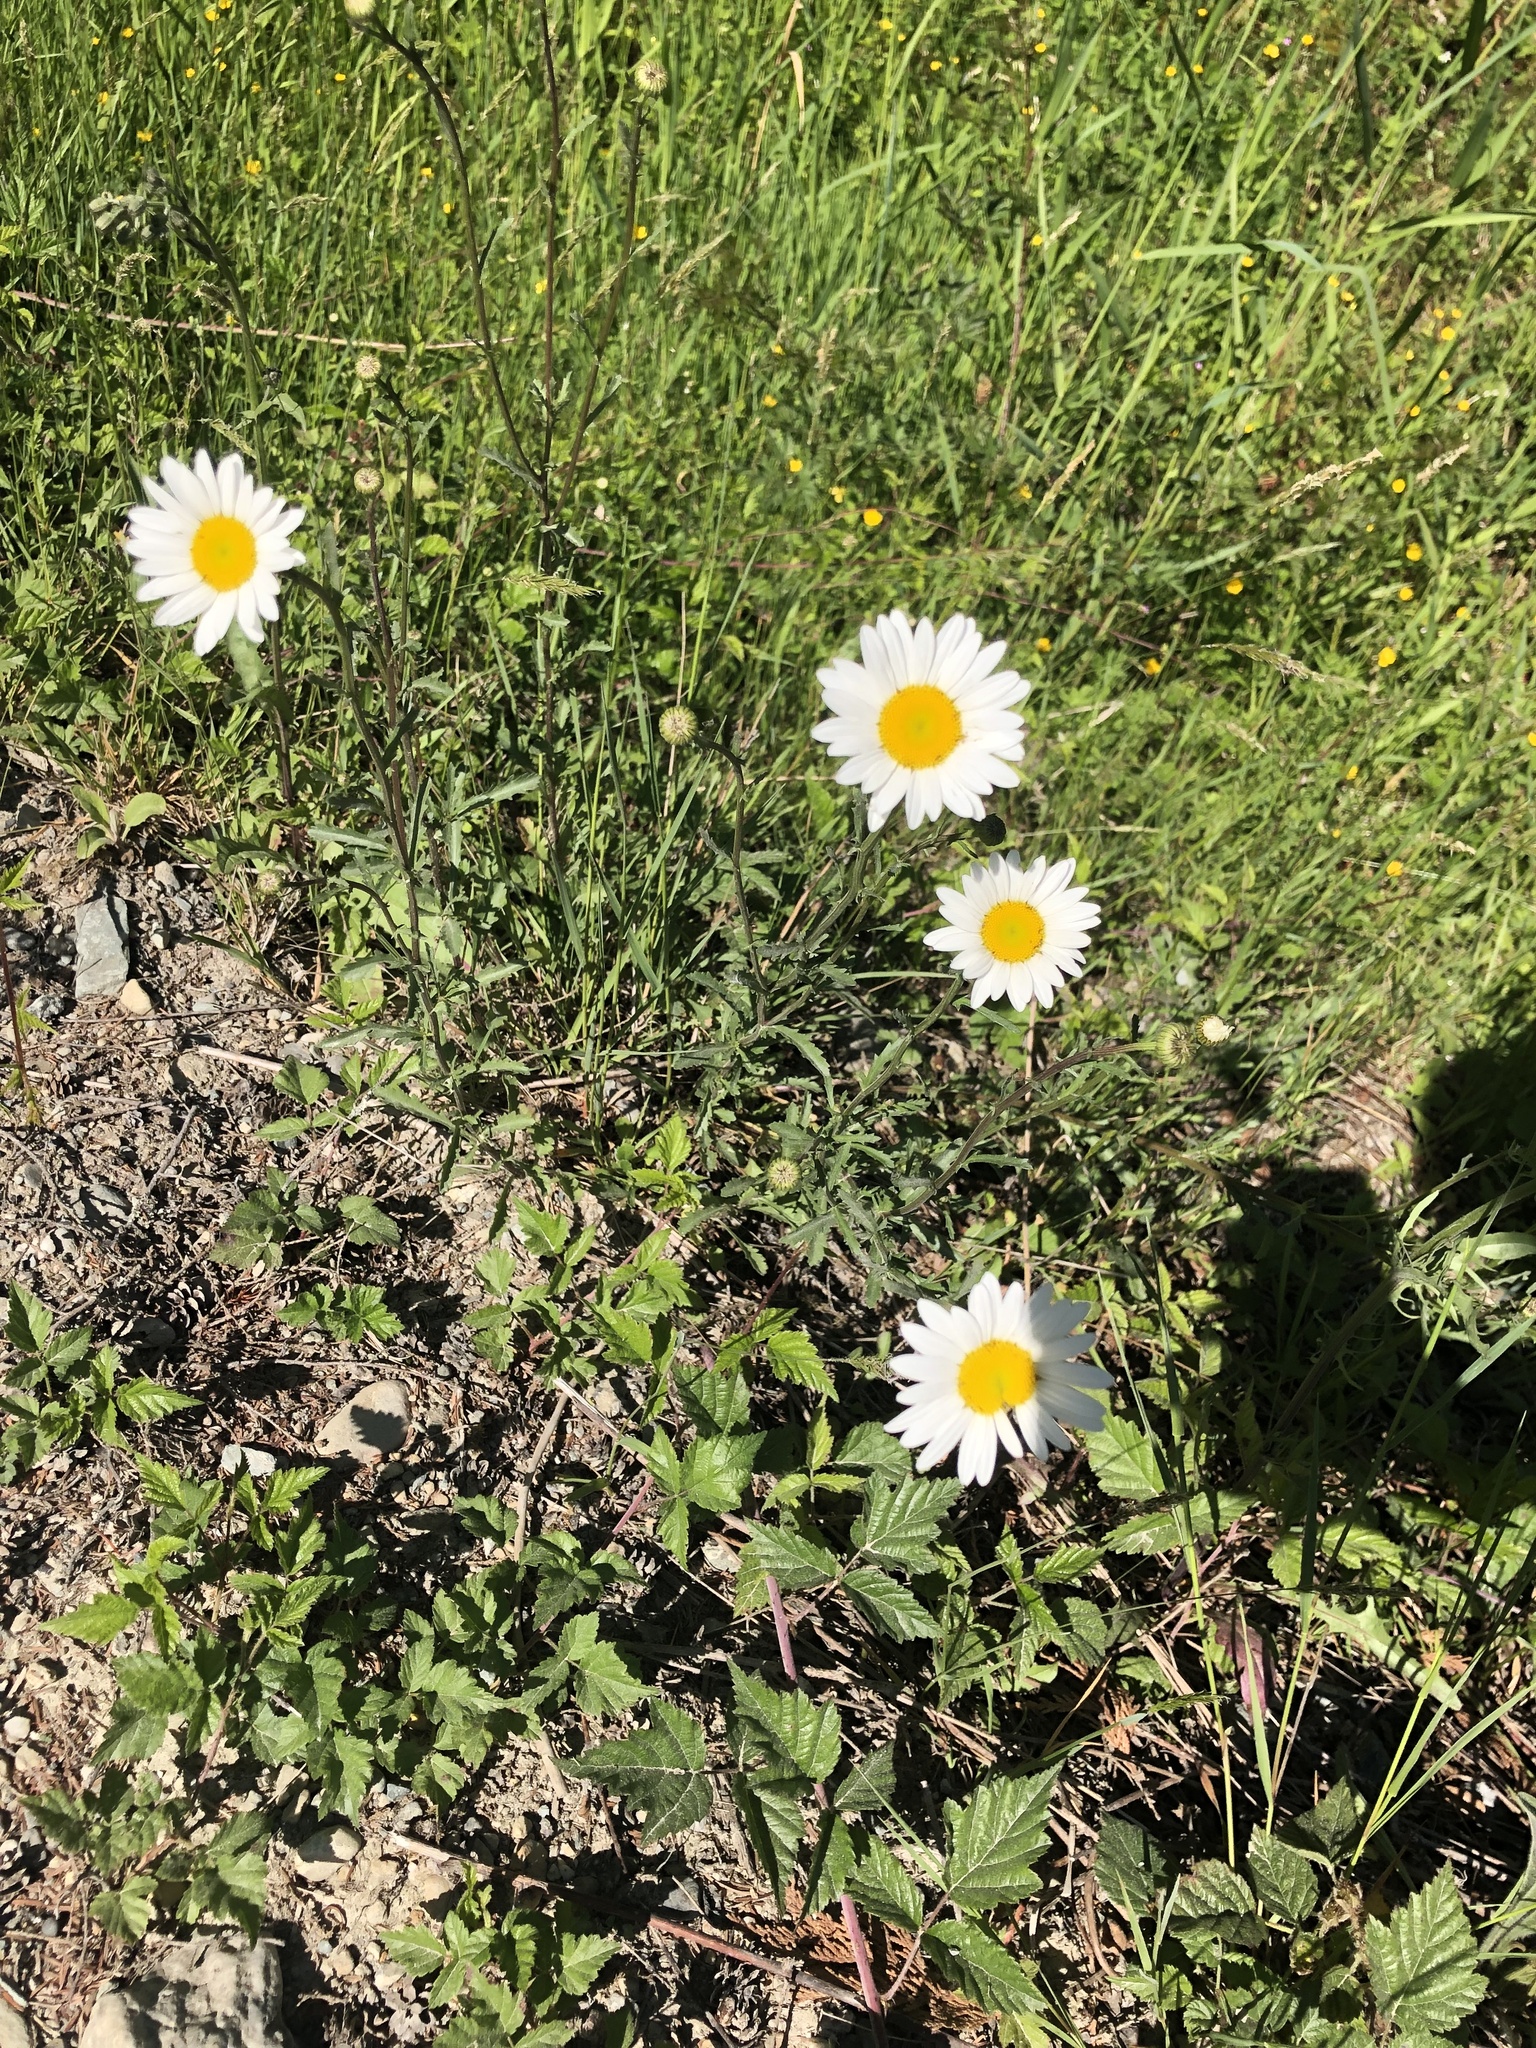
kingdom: Plantae
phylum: Tracheophyta
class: Magnoliopsida
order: Asterales
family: Asteraceae
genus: Leucanthemum
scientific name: Leucanthemum vulgare
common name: Oxeye daisy
